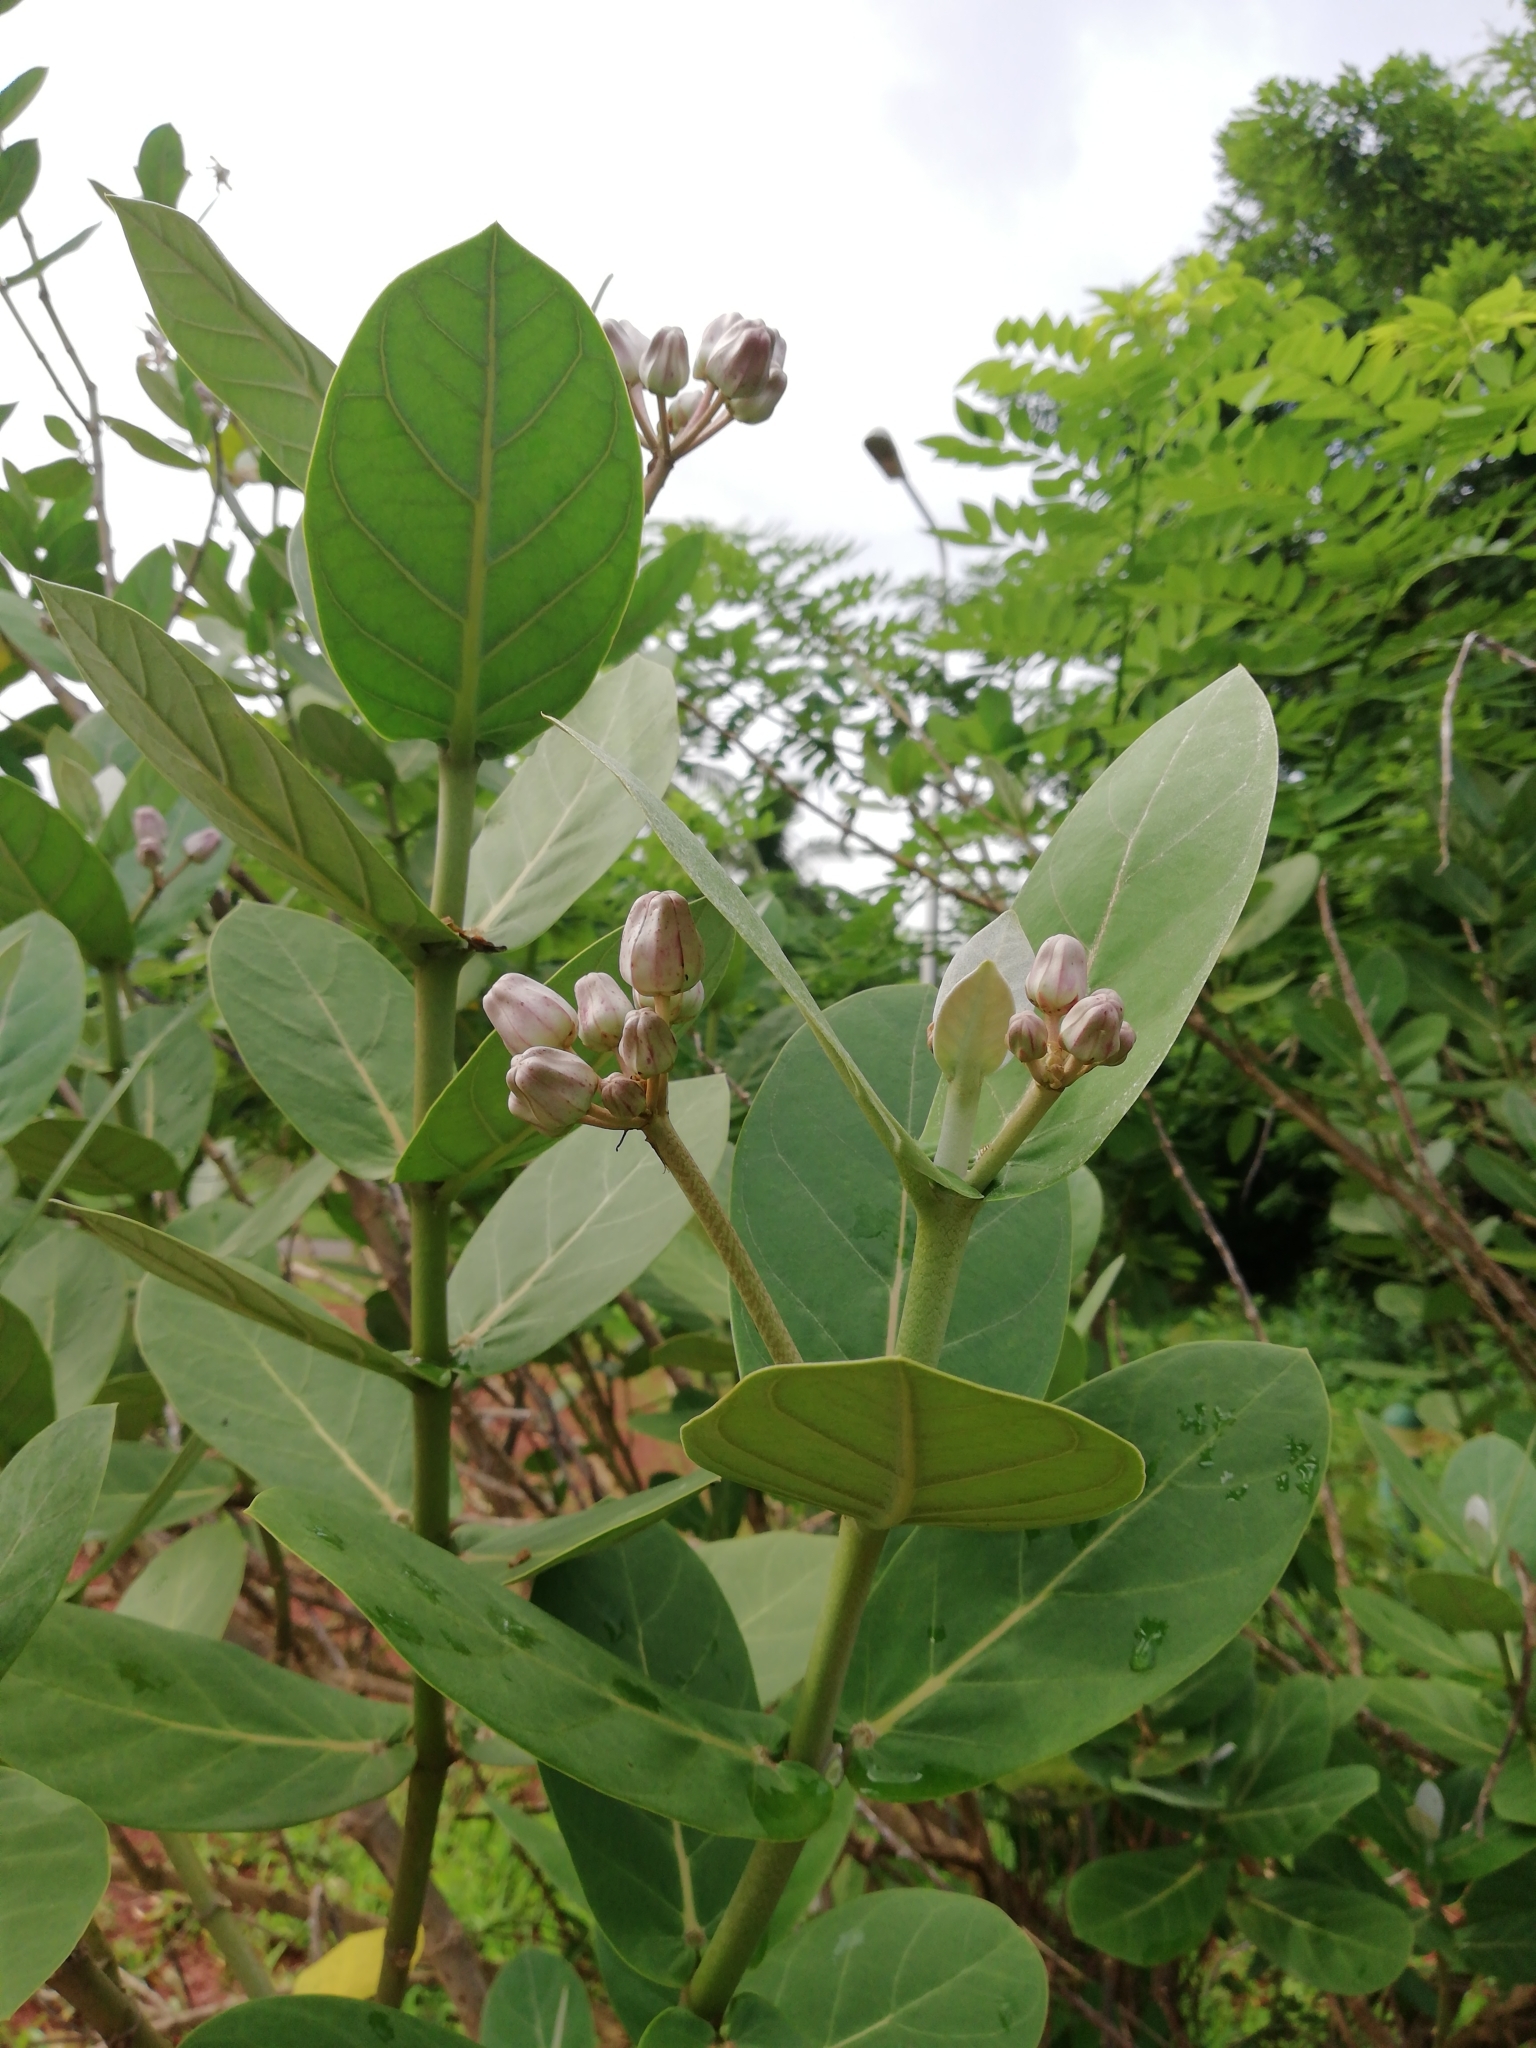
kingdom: Plantae
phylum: Tracheophyta
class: Magnoliopsida
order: Gentianales
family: Apocynaceae
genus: Calotropis
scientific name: Calotropis gigantea
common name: Crown flower
